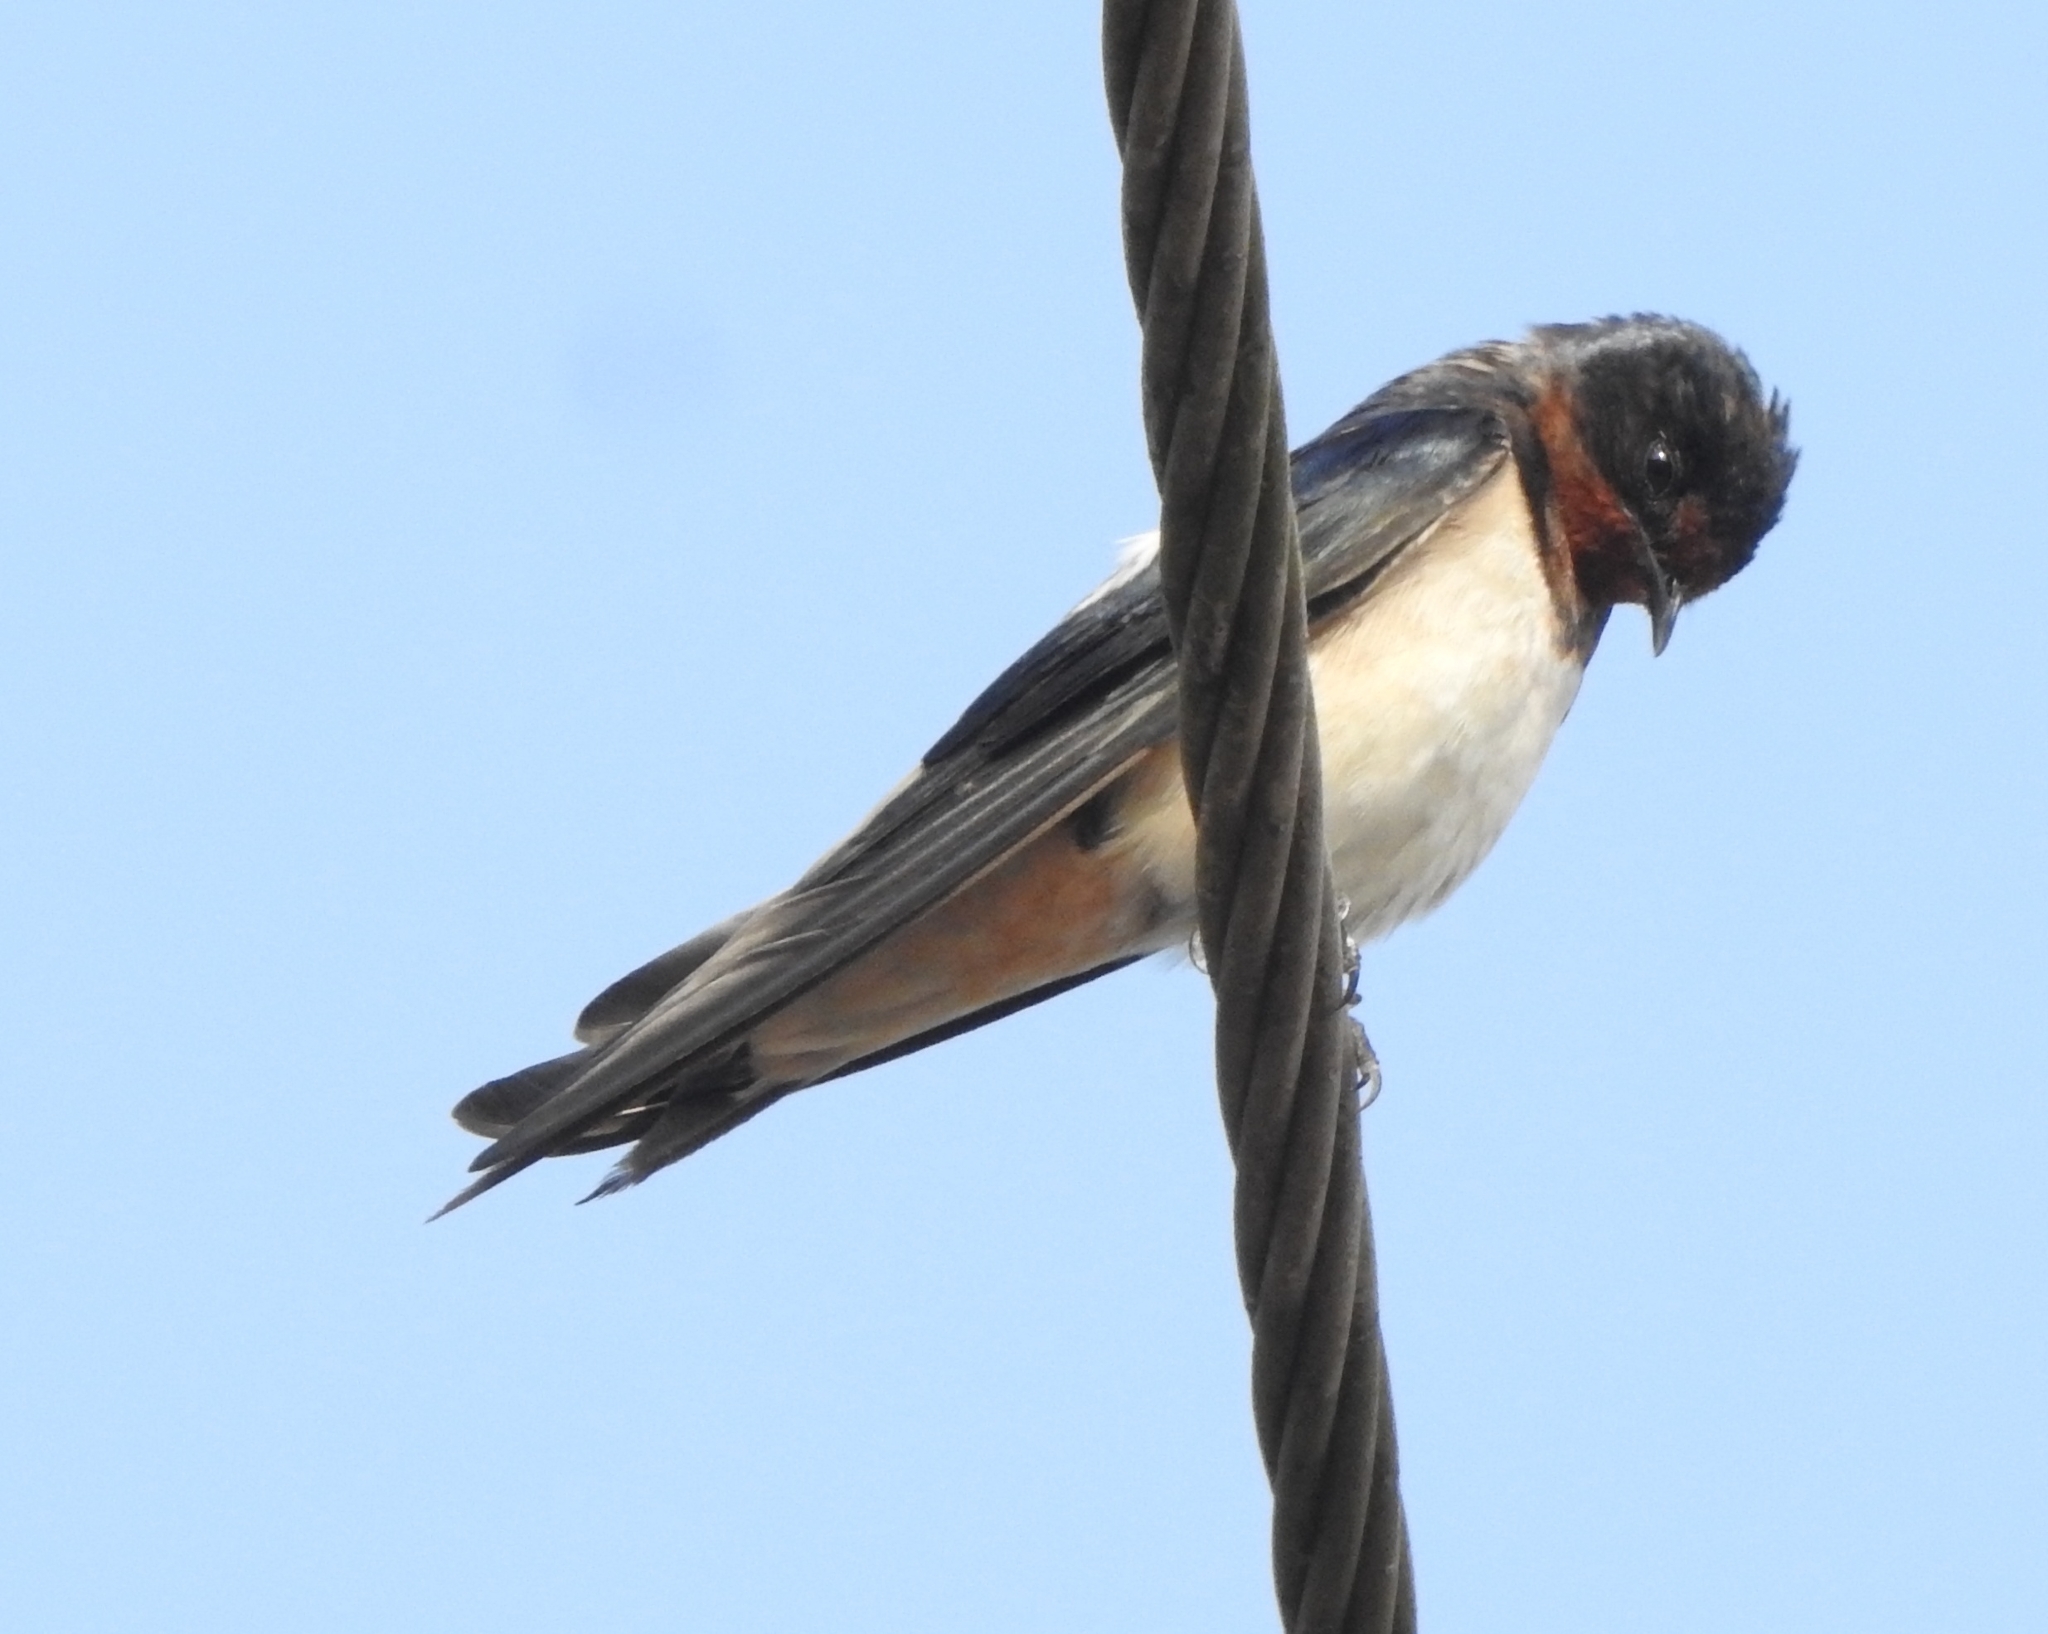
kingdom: Animalia
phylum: Chordata
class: Aves
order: Passeriformes
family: Hirundinidae
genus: Hirundo
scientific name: Hirundo rustica
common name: Barn swallow
